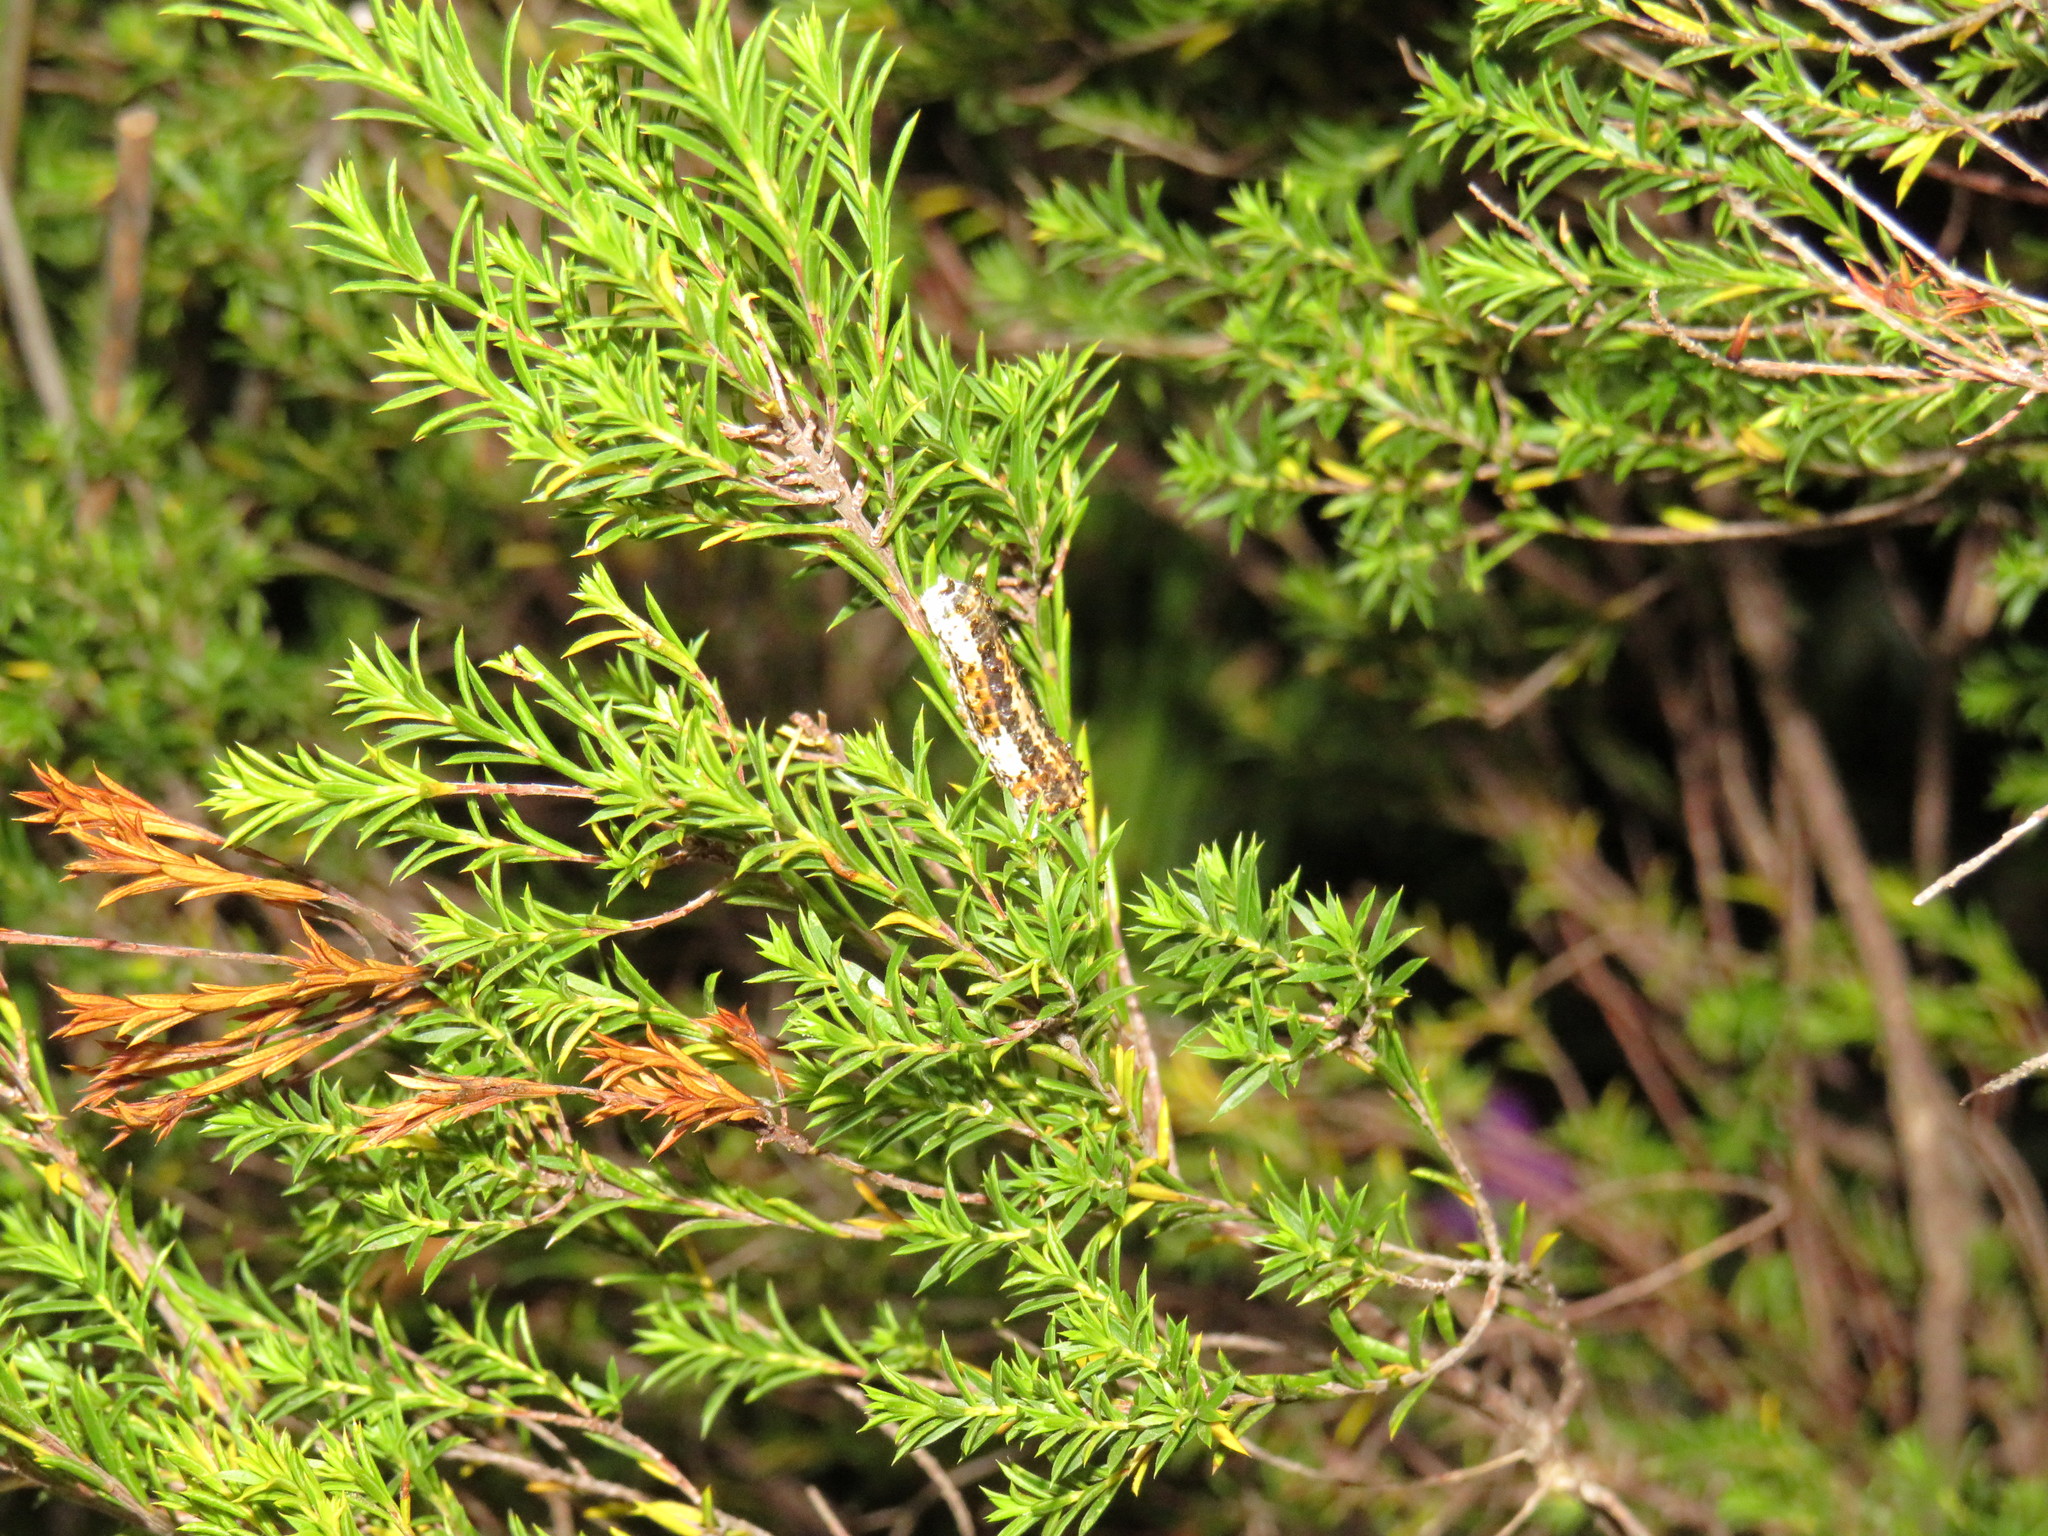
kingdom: Animalia
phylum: Arthropoda
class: Insecta
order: Lepidoptera
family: Papilionidae
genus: Papilio
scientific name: Papilio demodocus
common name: Christmas butterfly
